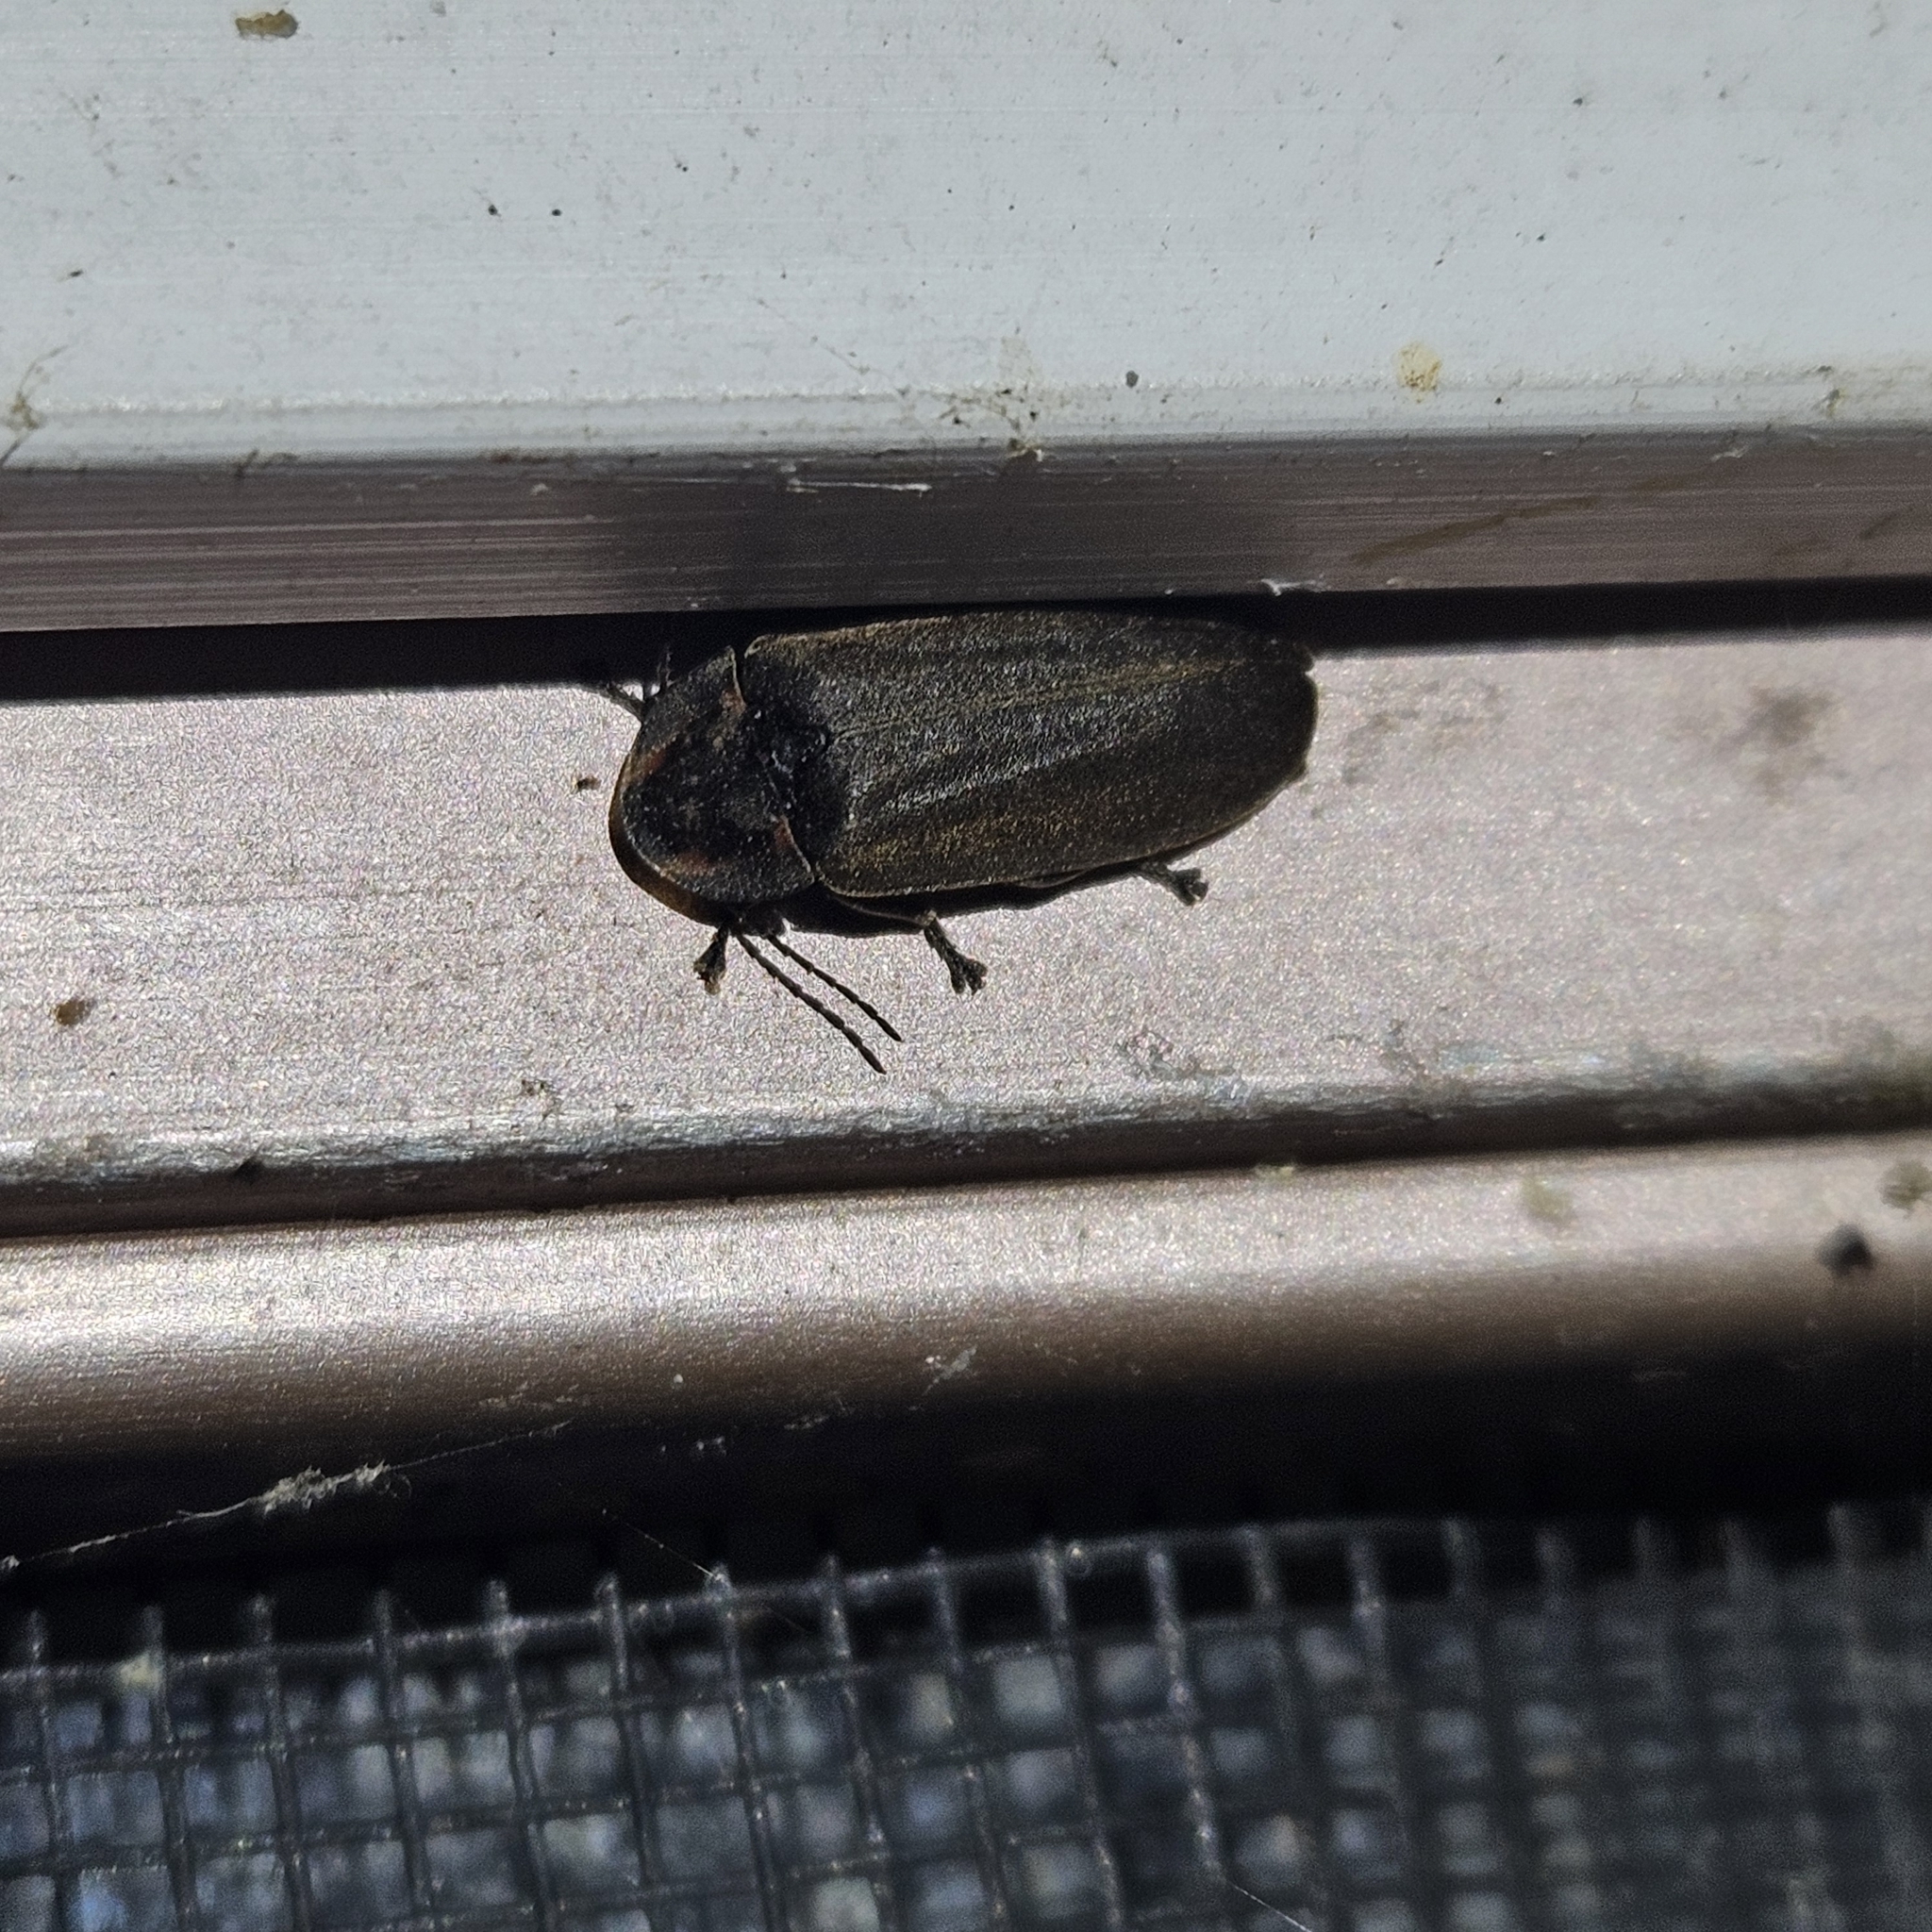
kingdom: Animalia
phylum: Arthropoda
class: Insecta
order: Coleoptera
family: Lampyridae
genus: Photinus
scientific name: Photinus corrusca
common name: Winter firefly
